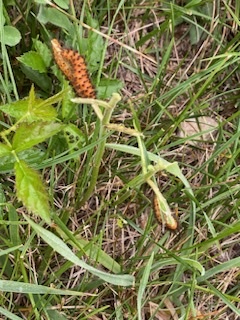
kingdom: Animalia
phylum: Arthropoda
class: Insecta
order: Lepidoptera
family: Erebidae
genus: Cycnia
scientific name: Cycnia collaris
